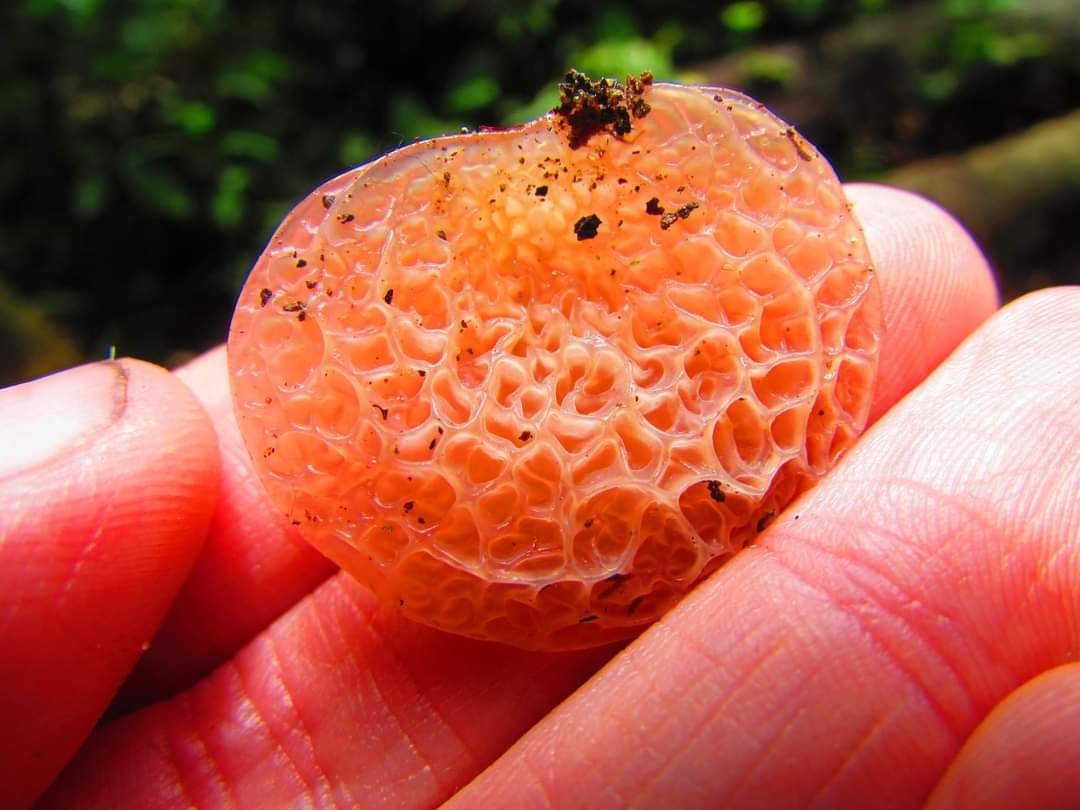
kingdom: Fungi
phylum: Basidiomycota
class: Agaricomycetes
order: Auriculariales
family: Auriculariaceae
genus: Auricularia
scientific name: Auricularia delicata
